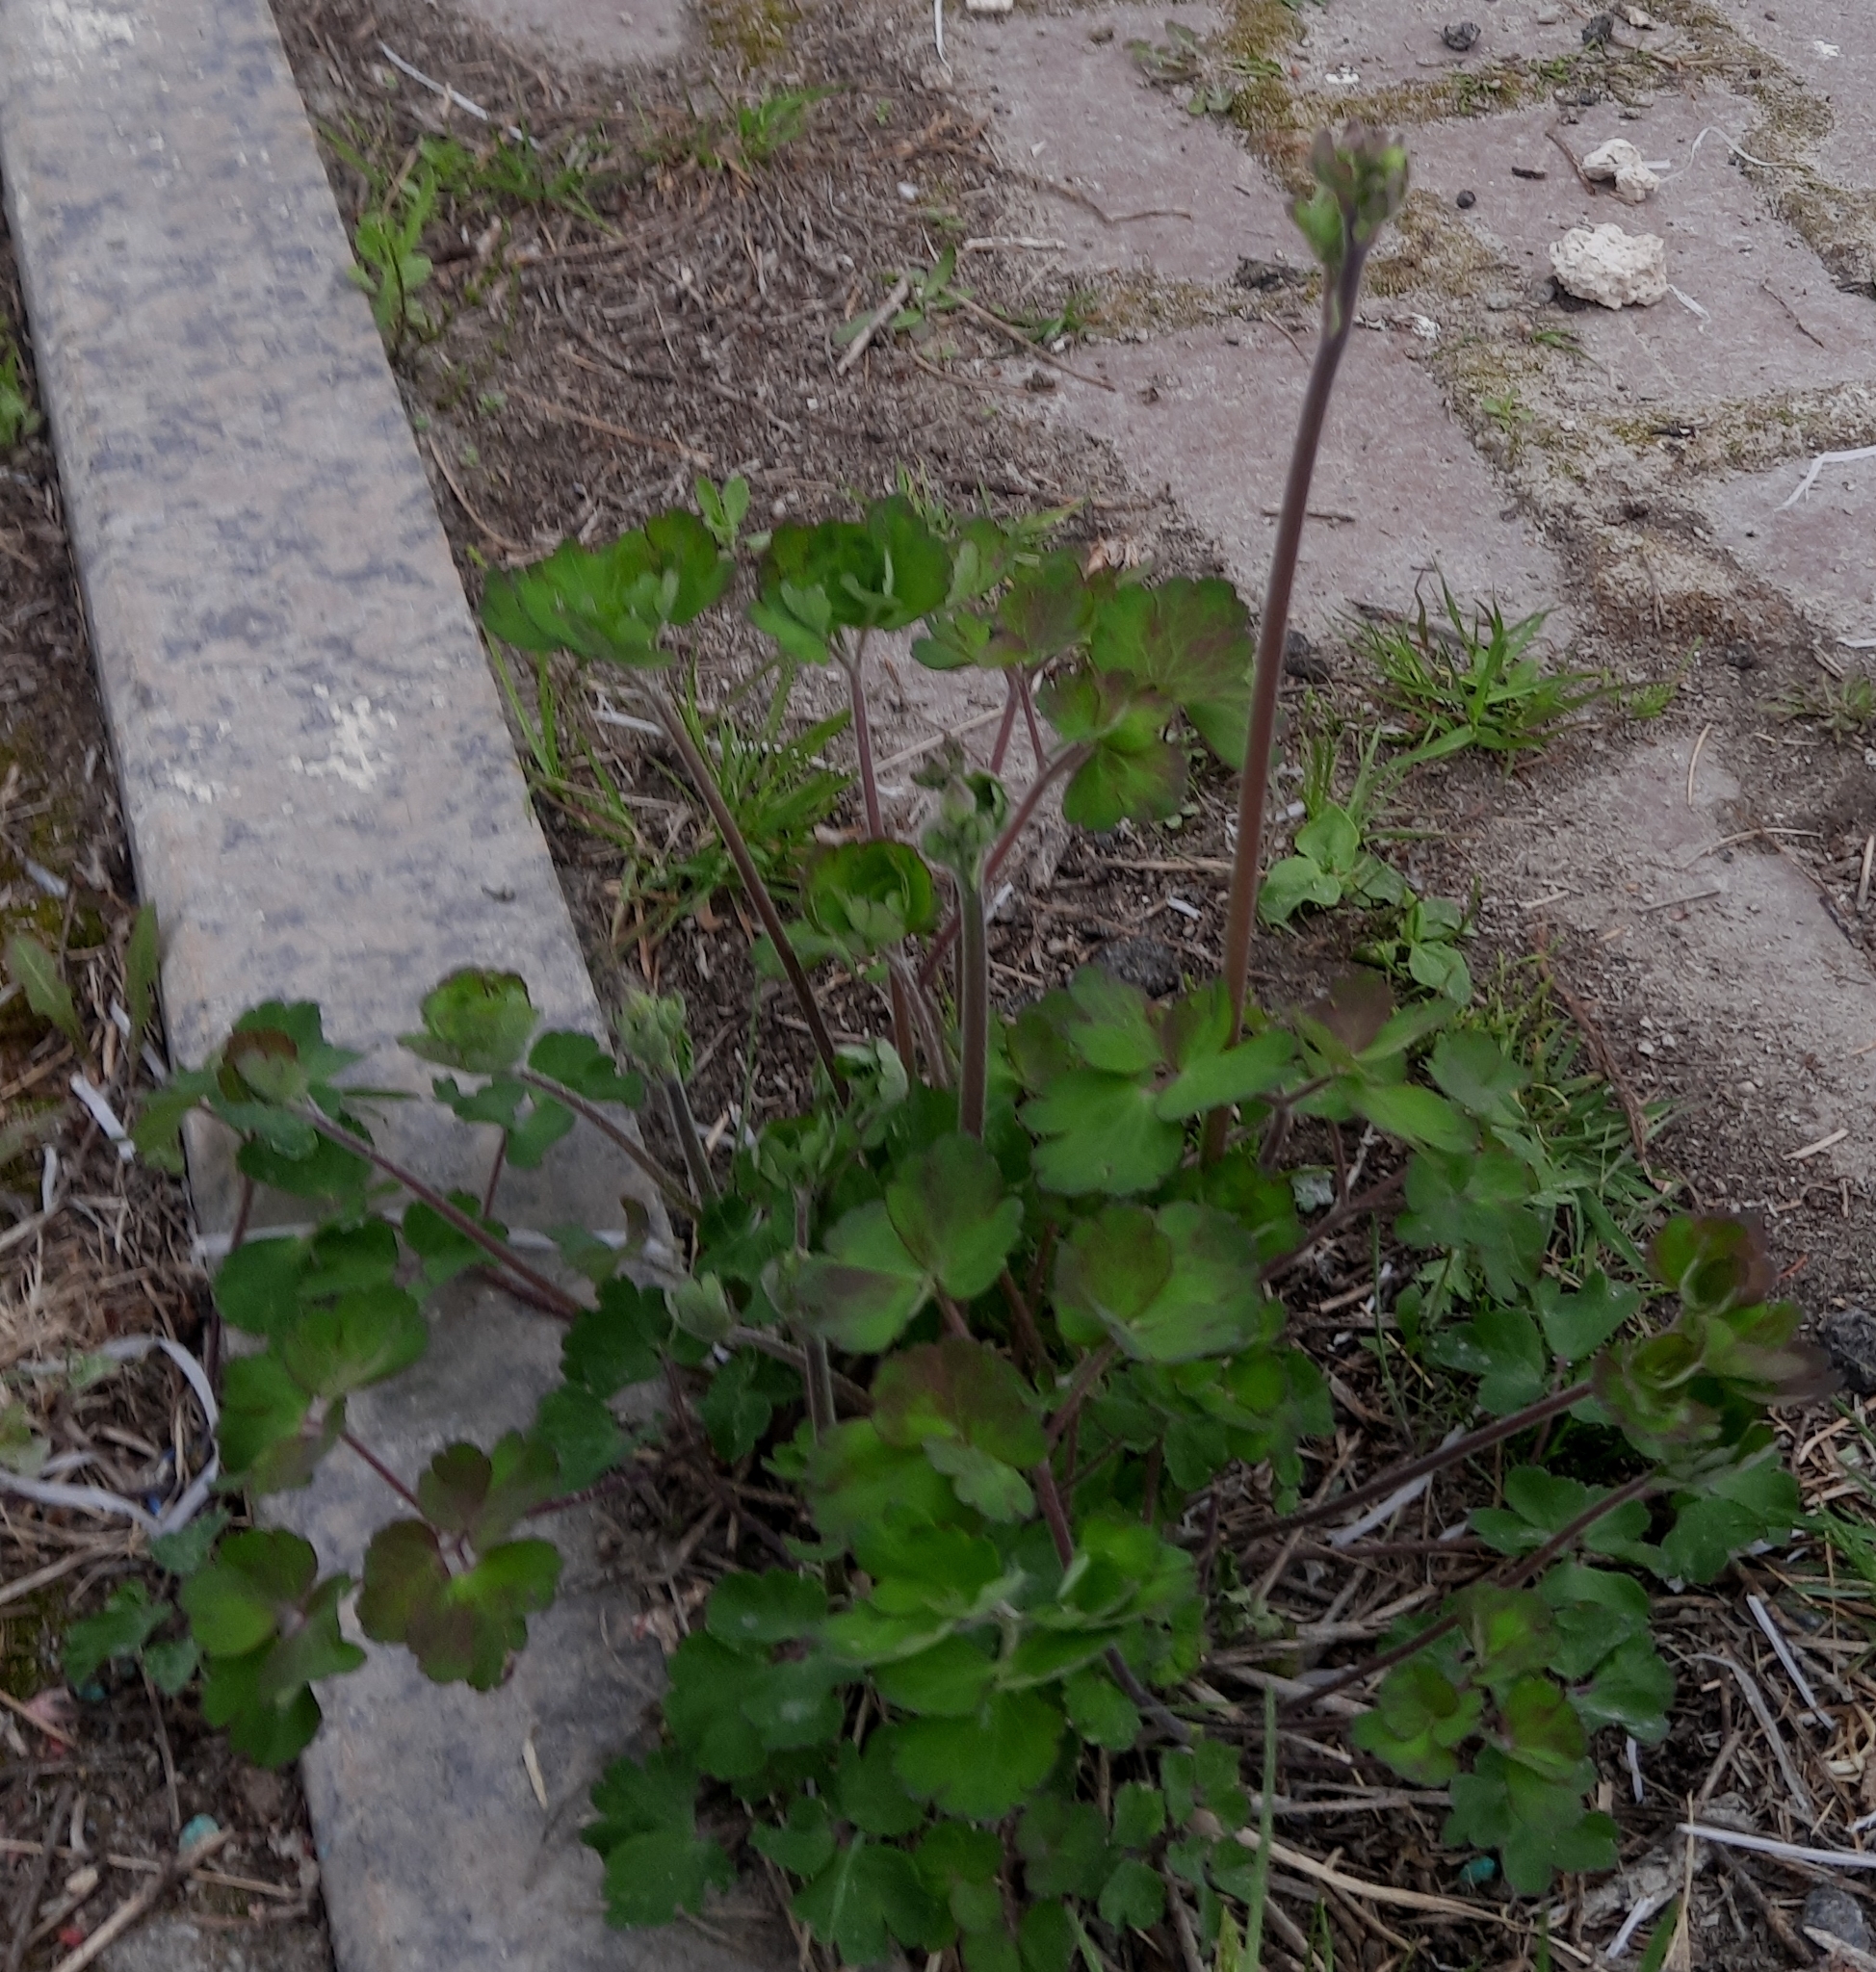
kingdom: Plantae
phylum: Tracheophyta
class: Magnoliopsida
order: Ranunculales
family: Ranunculaceae
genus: Aquilegia
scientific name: Aquilegia vulgaris
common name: Columbine
